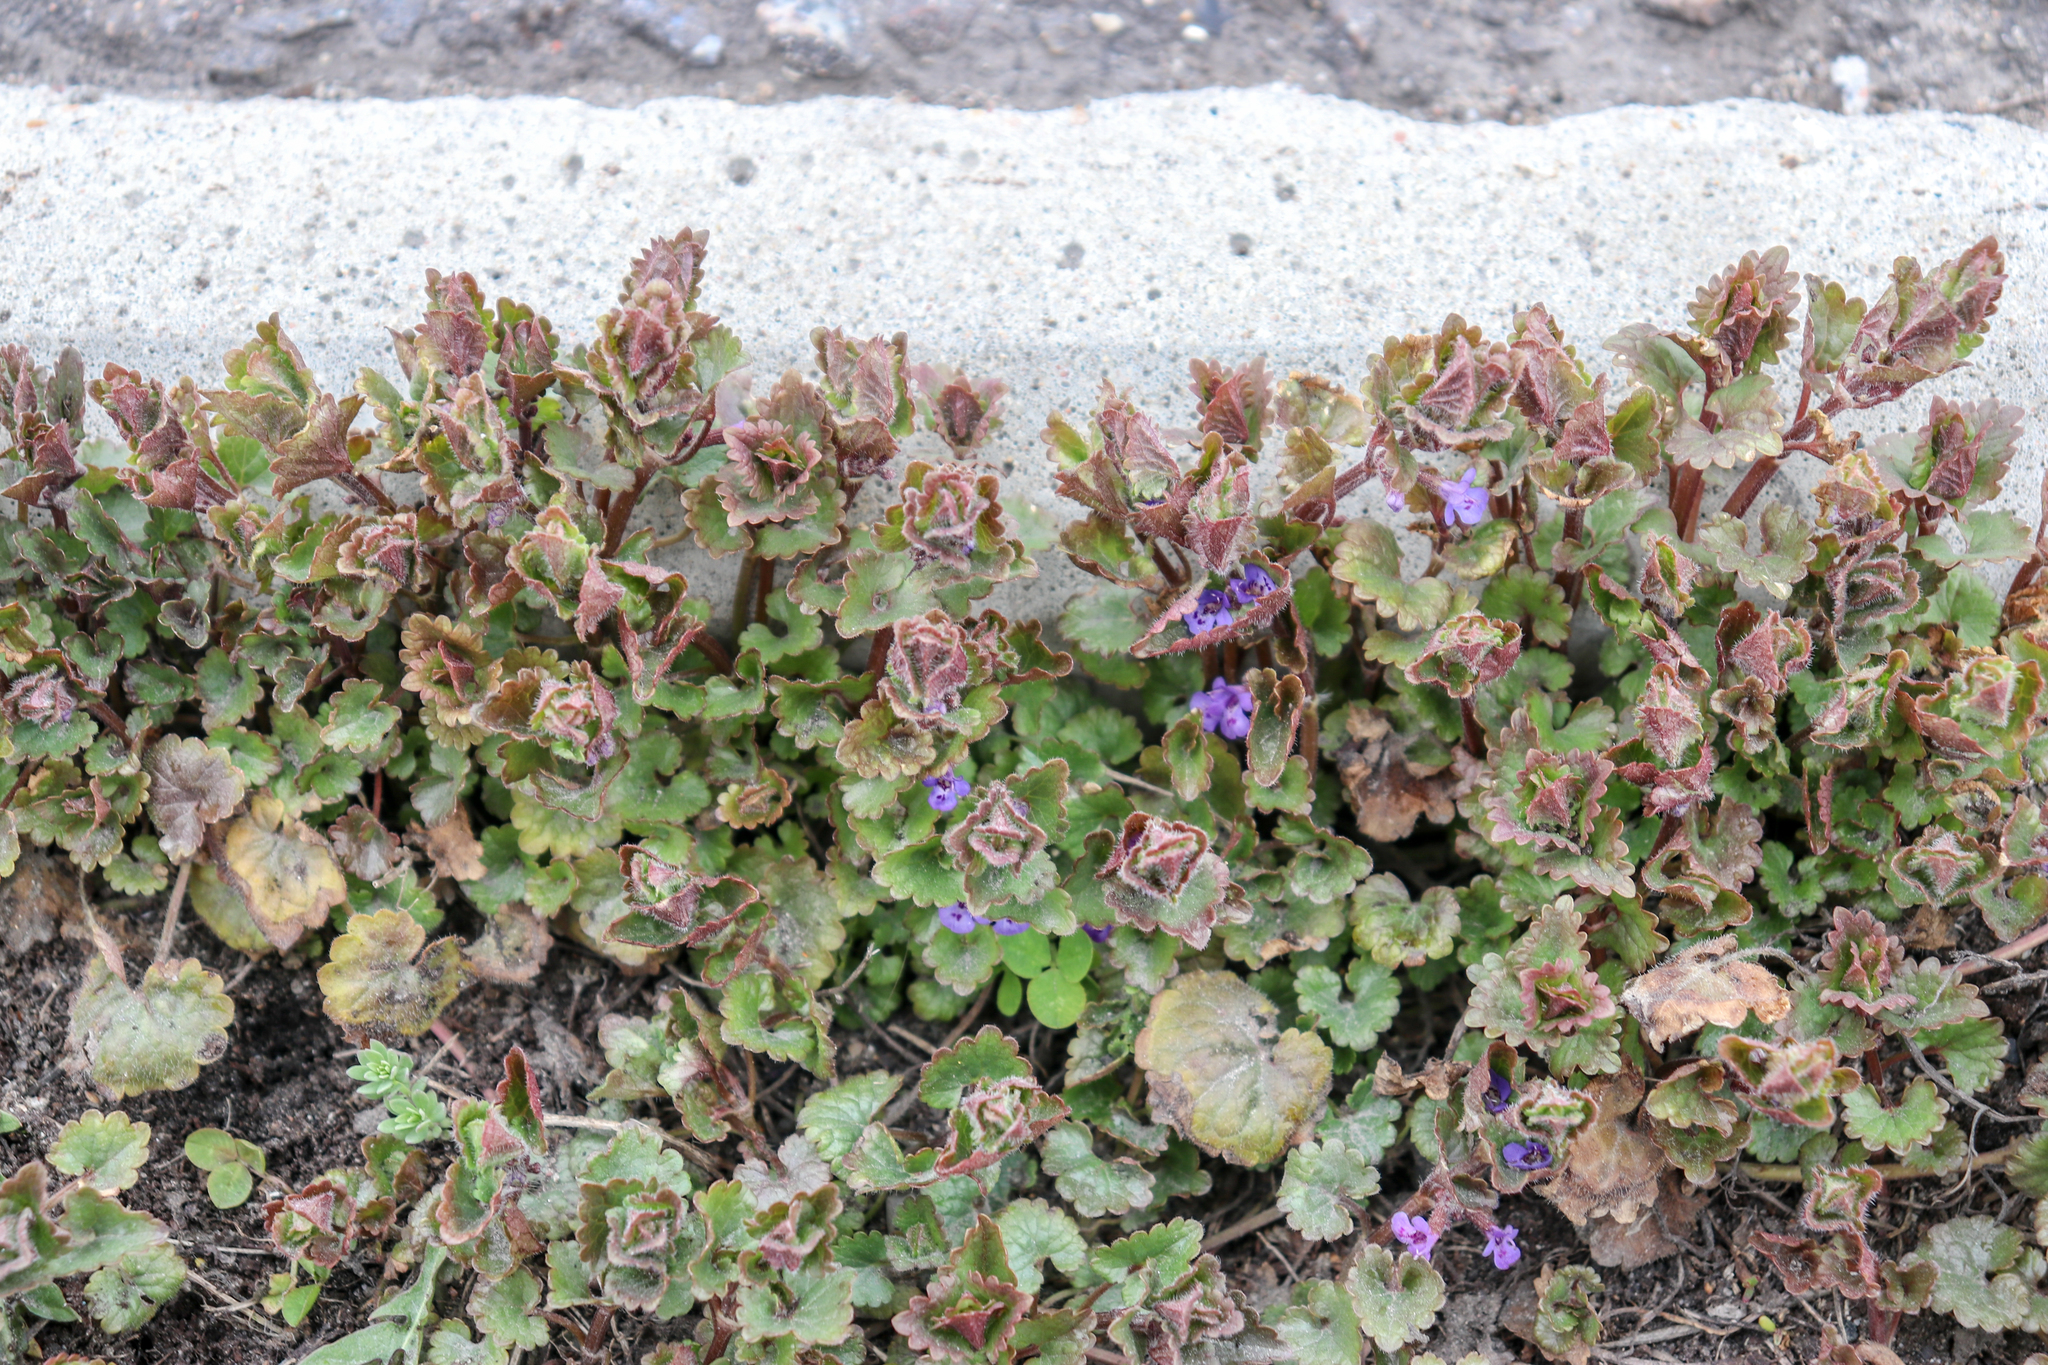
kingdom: Plantae
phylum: Tracheophyta
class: Magnoliopsida
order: Lamiales
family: Lamiaceae
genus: Glechoma
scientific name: Glechoma hederacea
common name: Ground ivy
